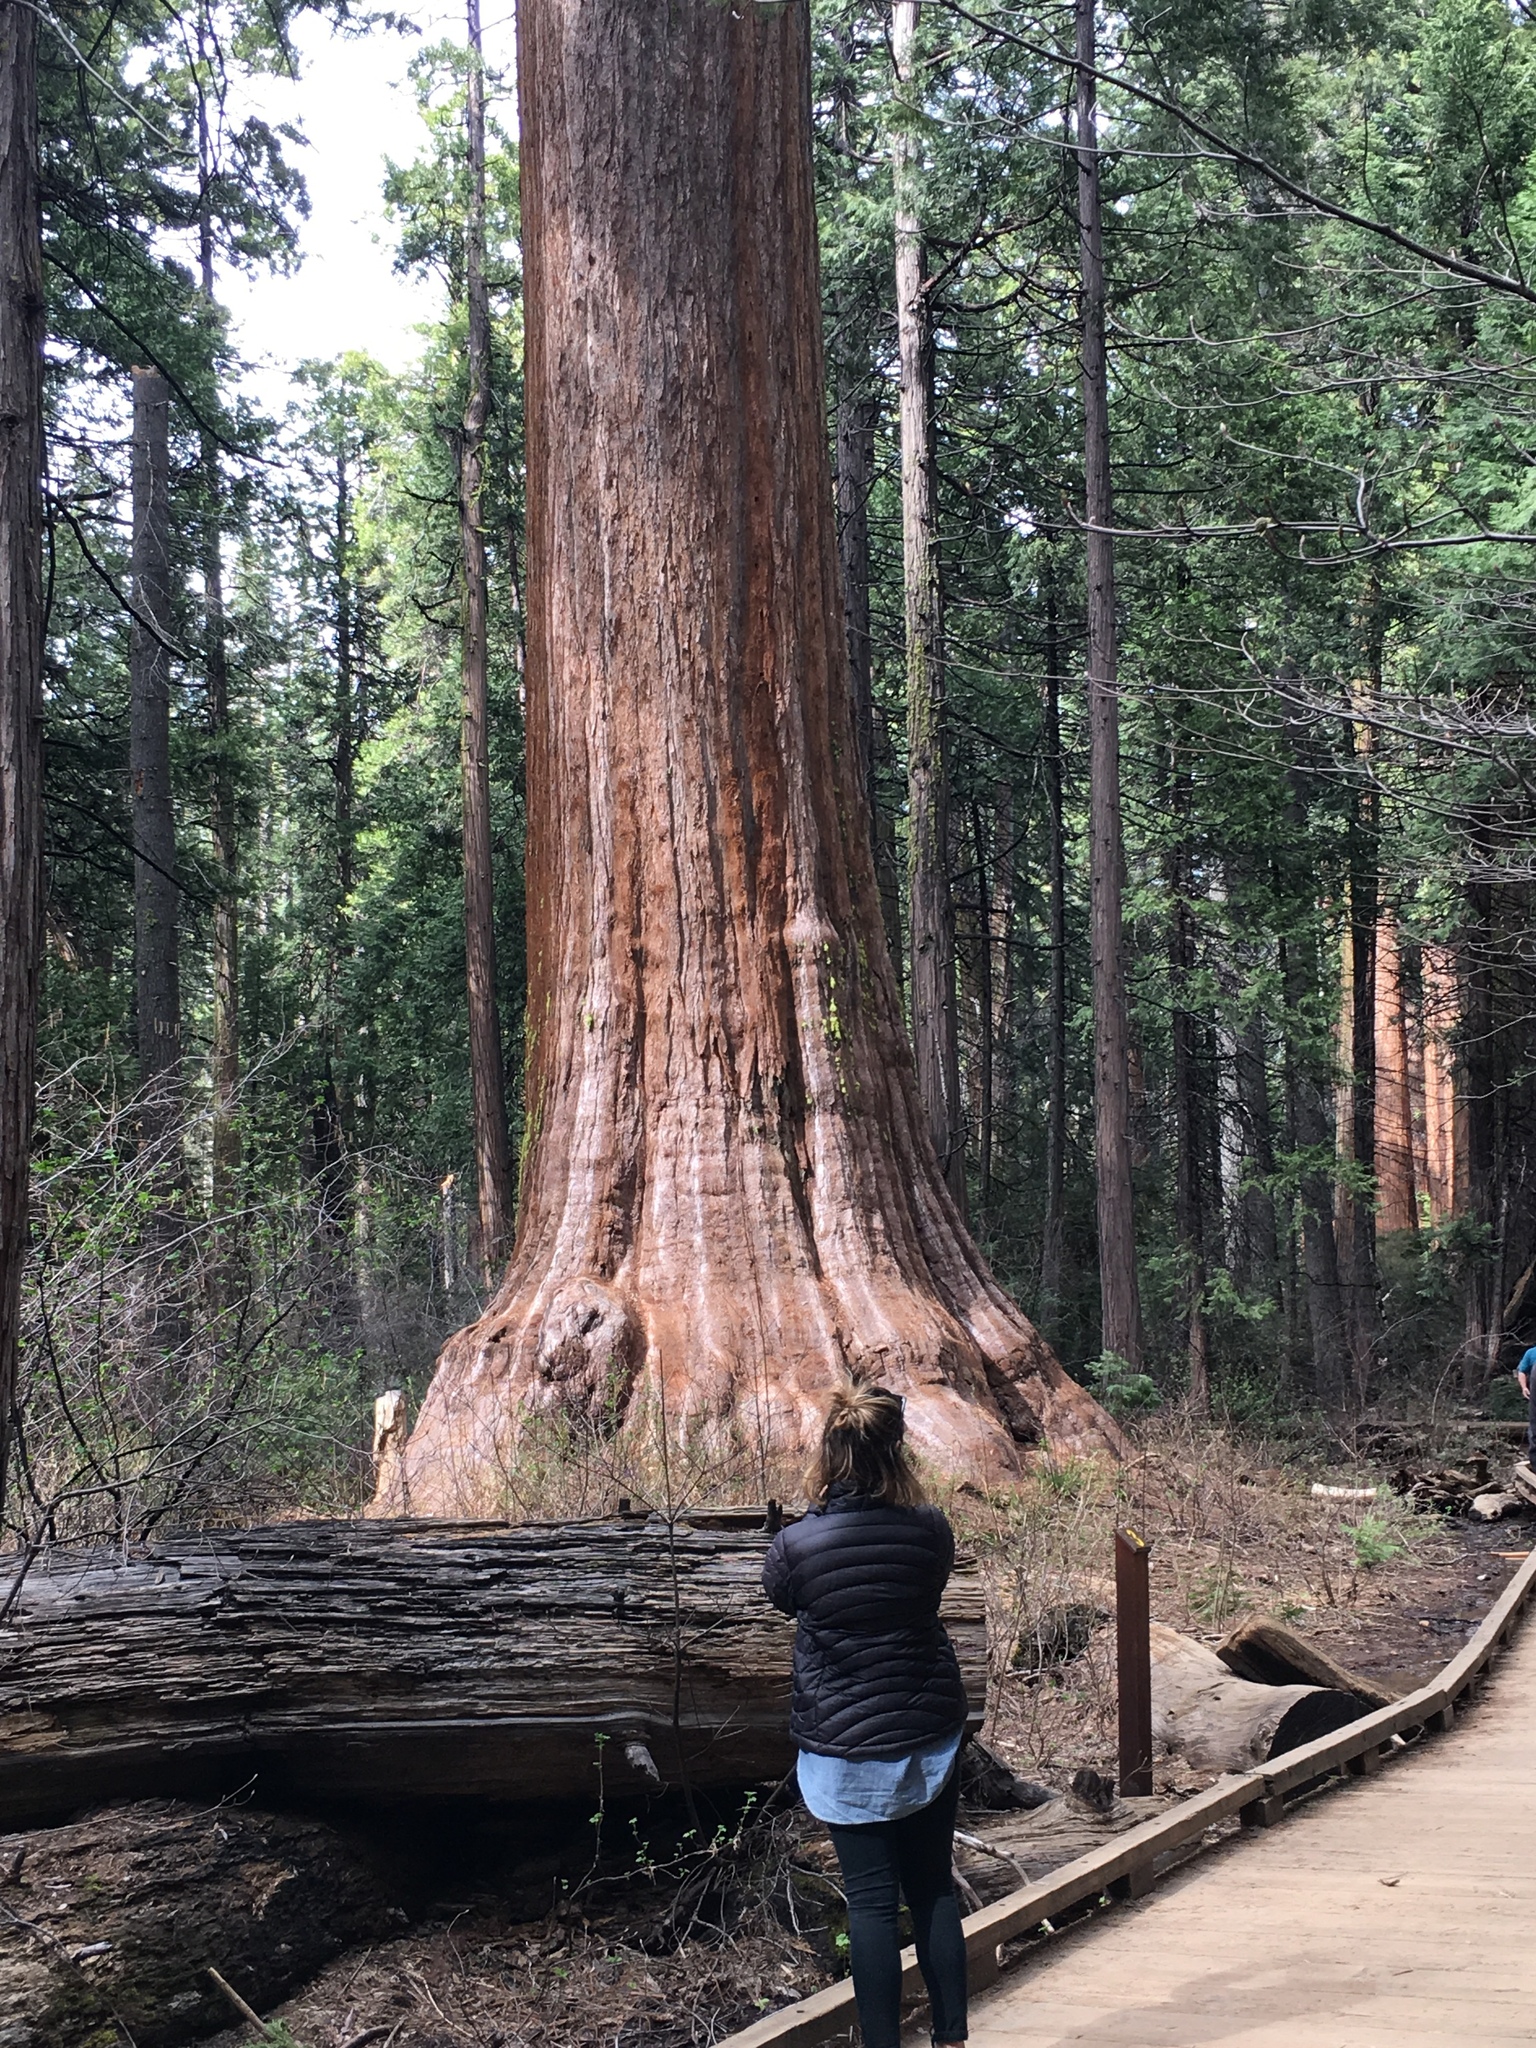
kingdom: Plantae
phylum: Tracheophyta
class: Pinopsida
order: Pinales
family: Cupressaceae
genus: Sequoiadendron
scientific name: Sequoiadendron giganteum
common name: Wellingtonia
